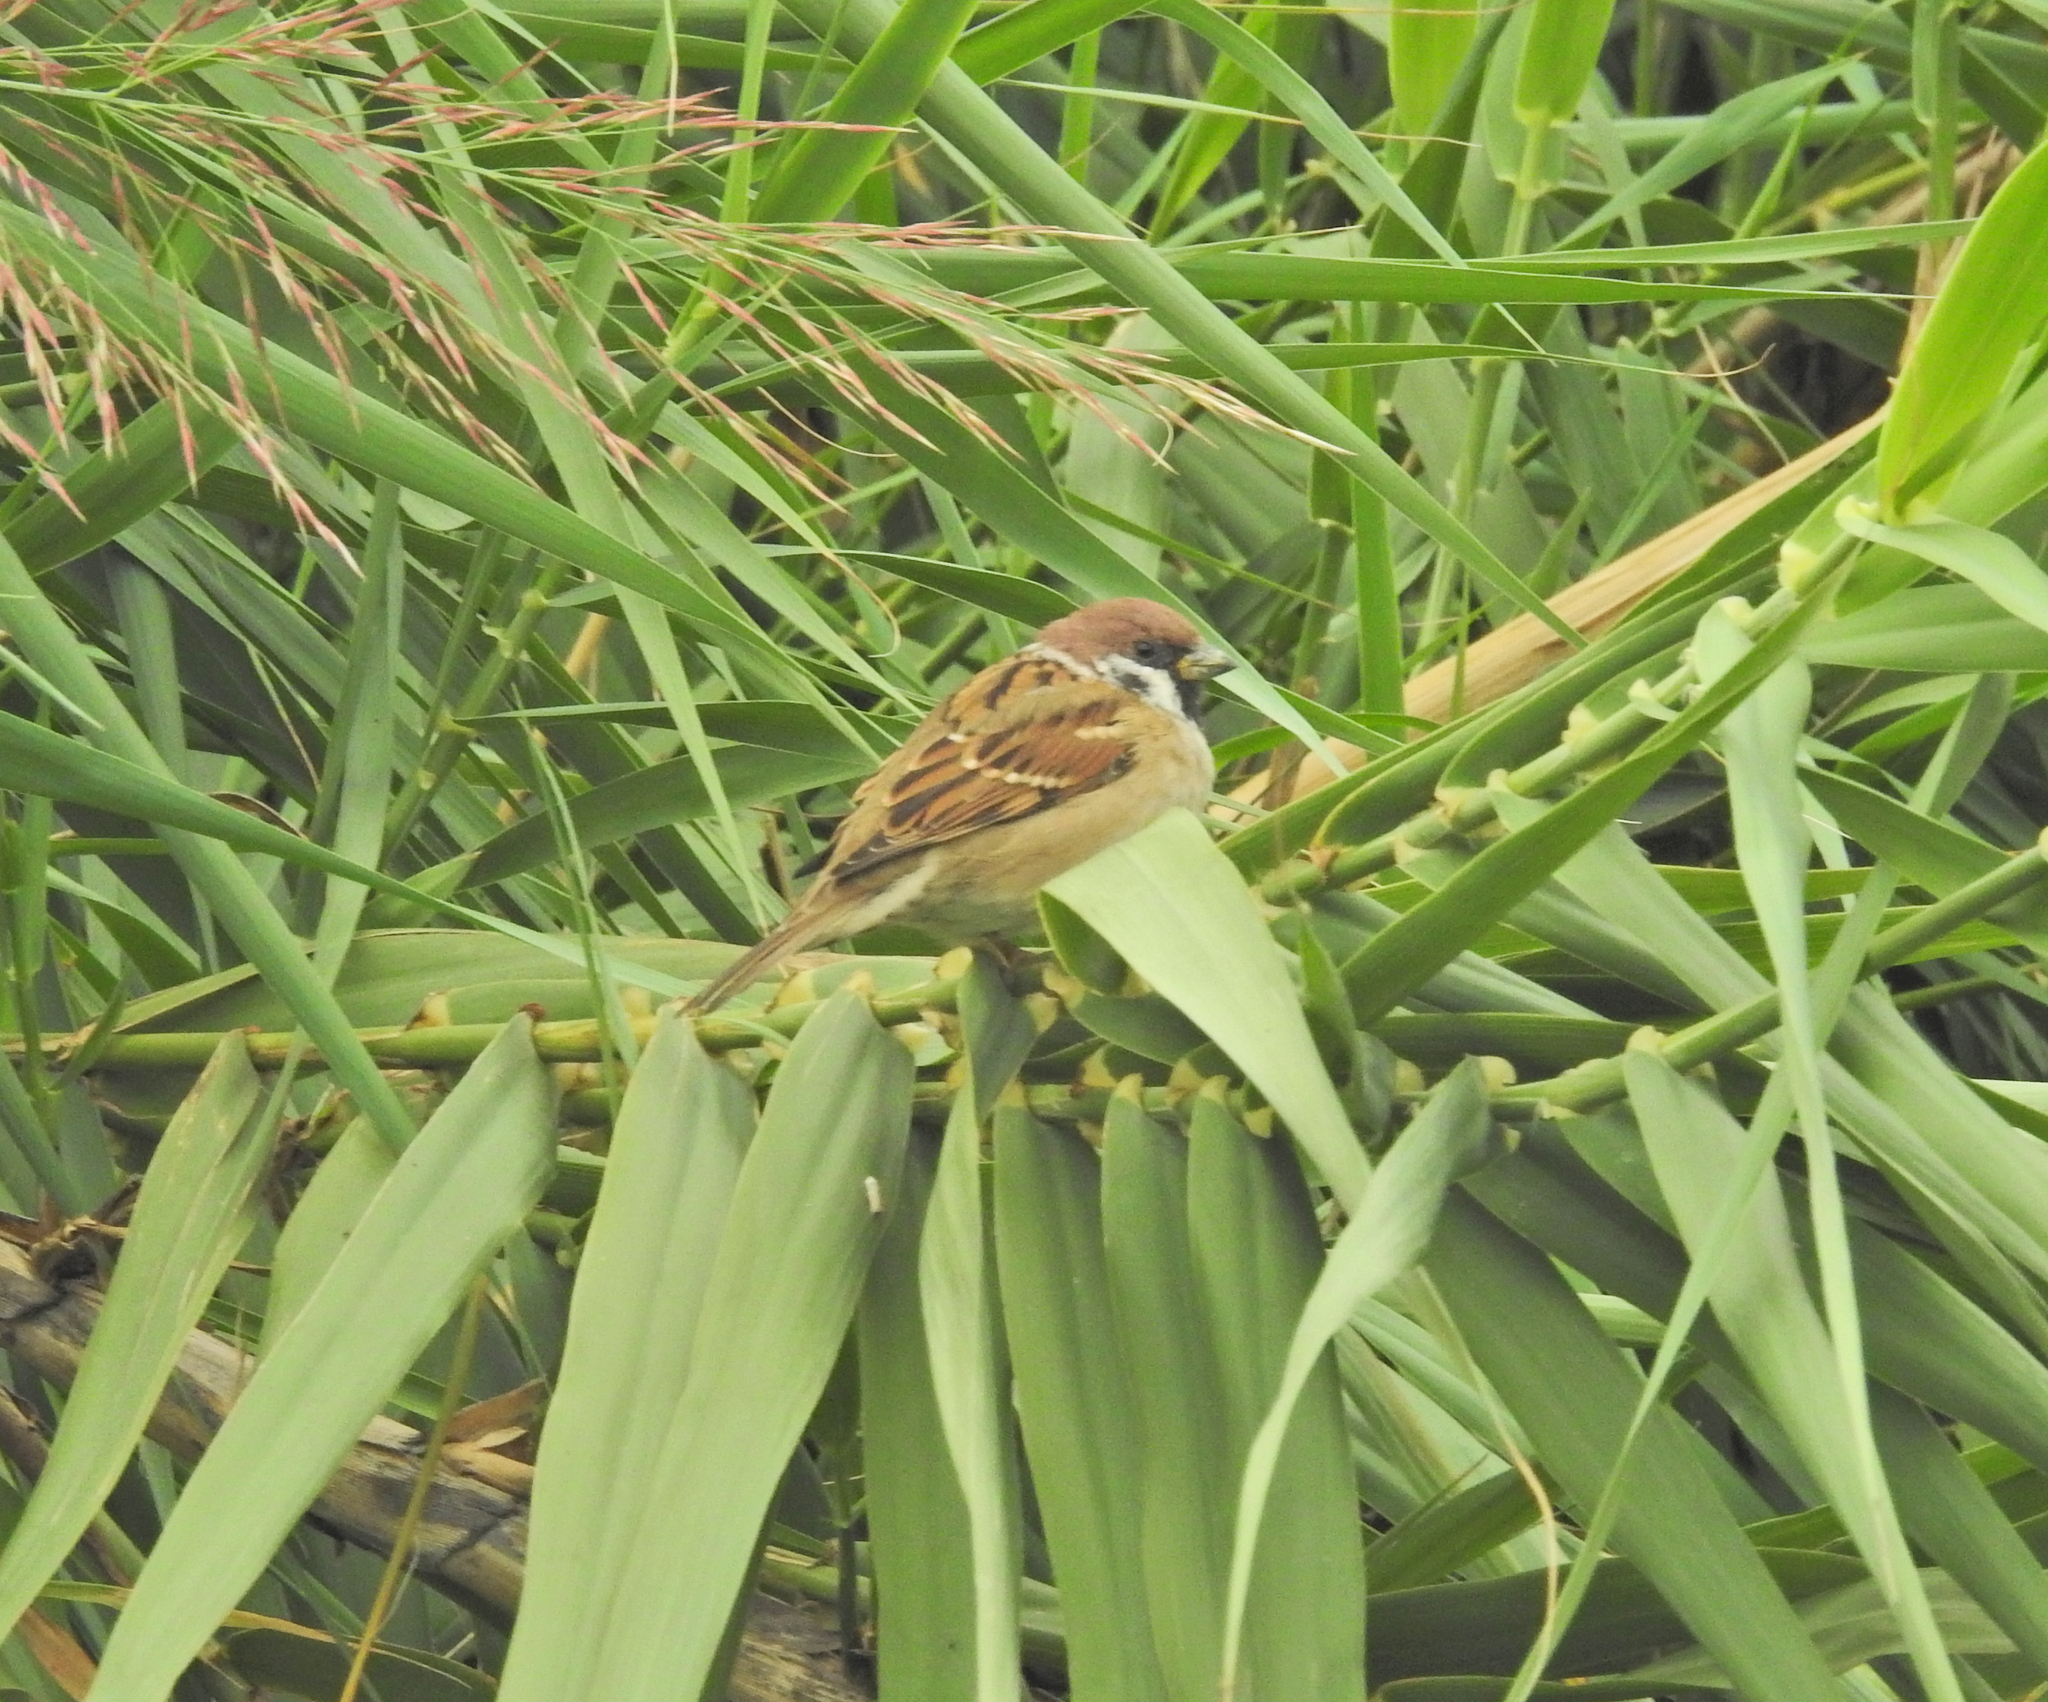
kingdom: Animalia
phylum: Chordata
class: Aves
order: Passeriformes
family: Passeridae
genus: Passer
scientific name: Passer montanus
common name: Eurasian tree sparrow
